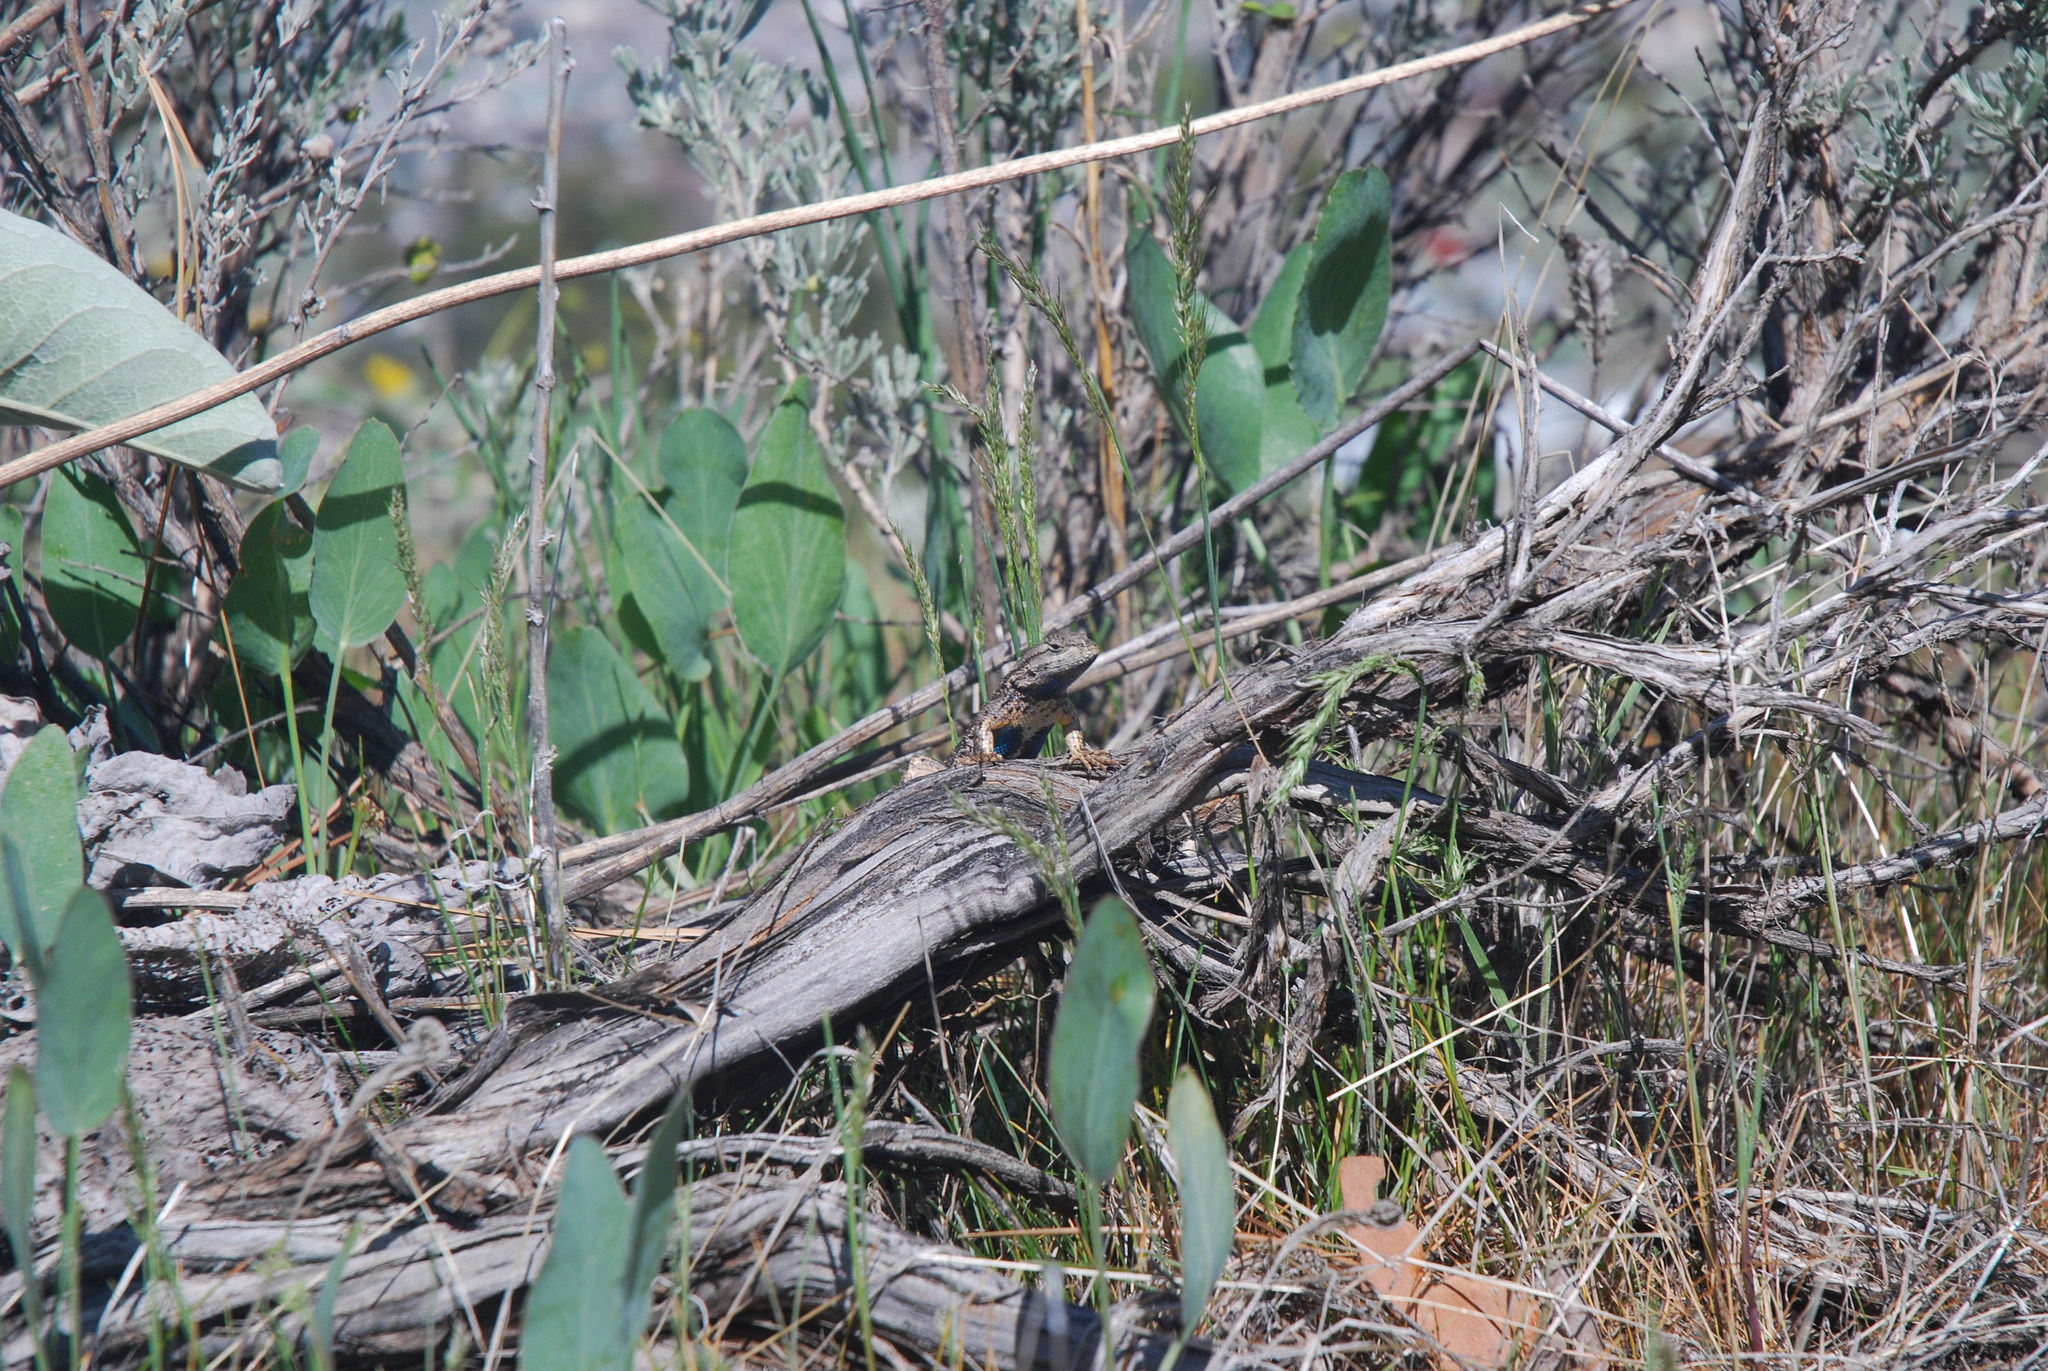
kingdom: Animalia
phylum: Chordata
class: Squamata
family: Phrynosomatidae
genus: Sceloporus
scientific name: Sceloporus occidentalis
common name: Western fence lizard
